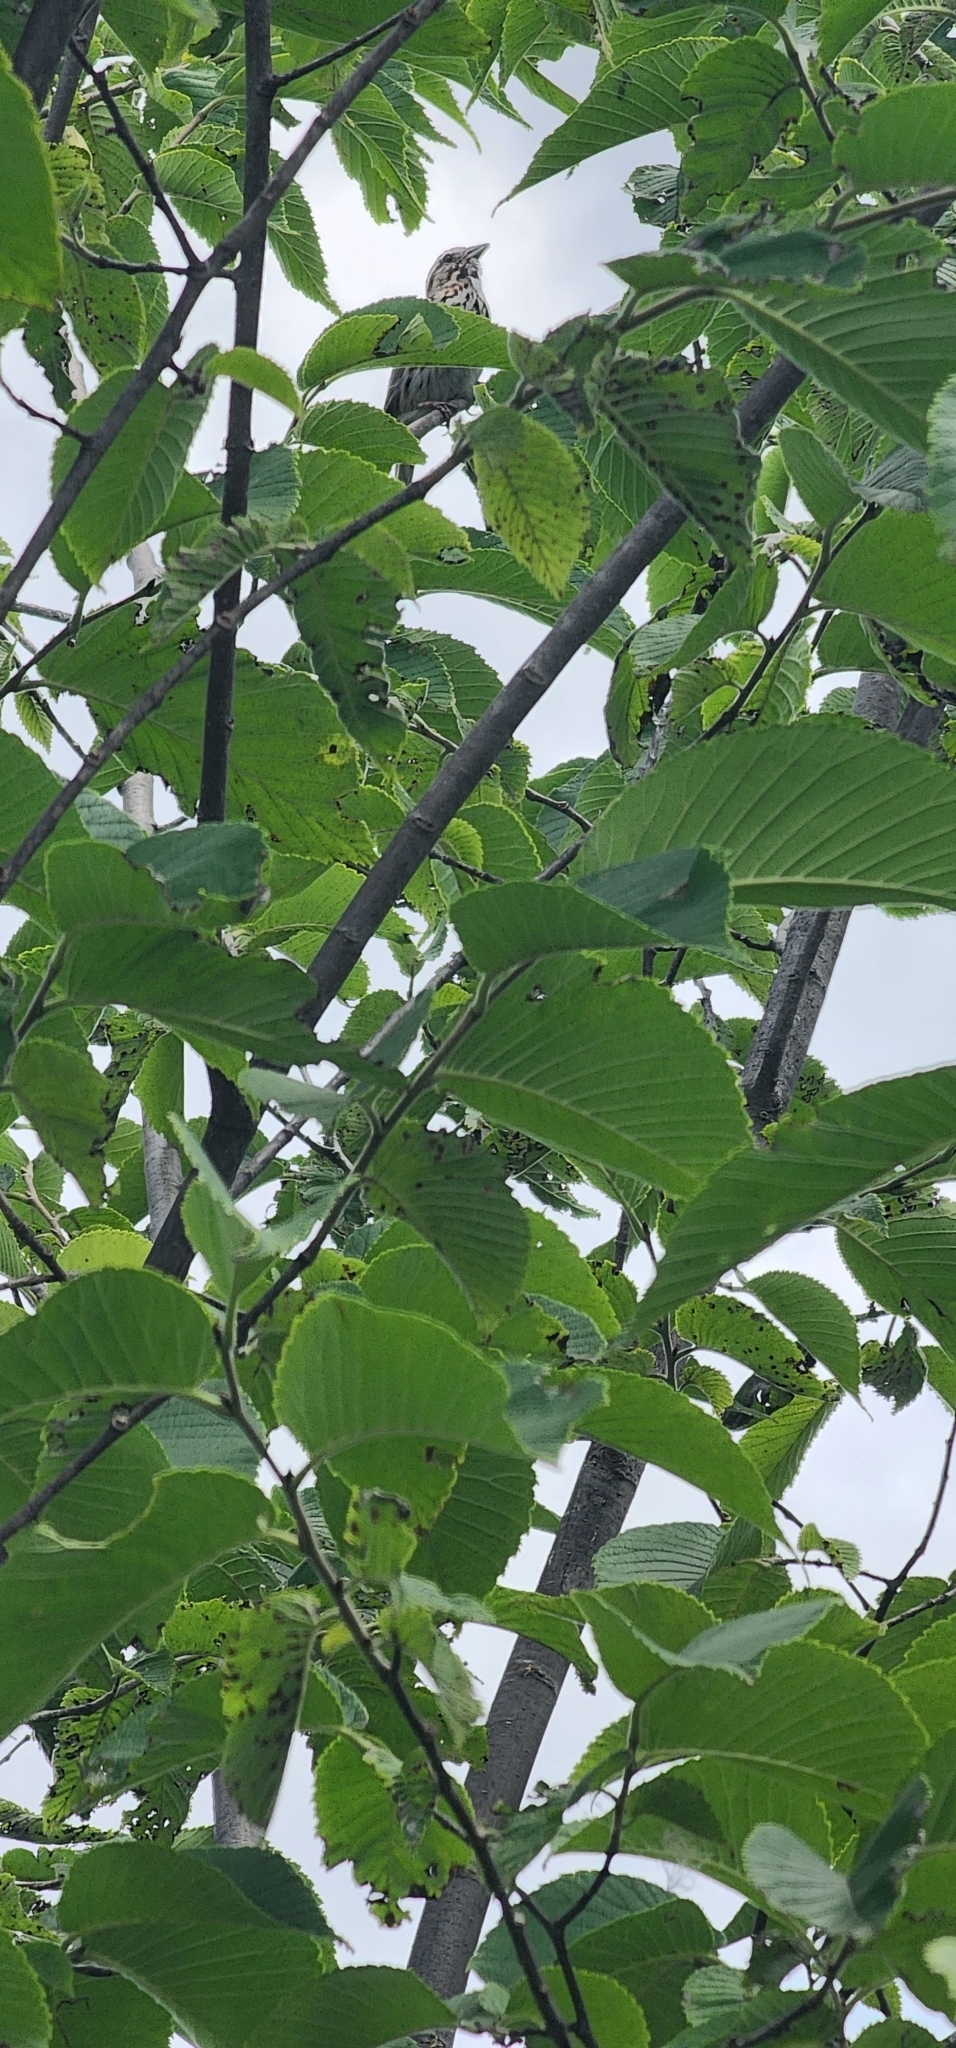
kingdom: Animalia
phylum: Chordata
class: Aves
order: Passeriformes
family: Passerellidae
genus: Melospiza
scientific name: Melospiza melodia
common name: Song sparrow
